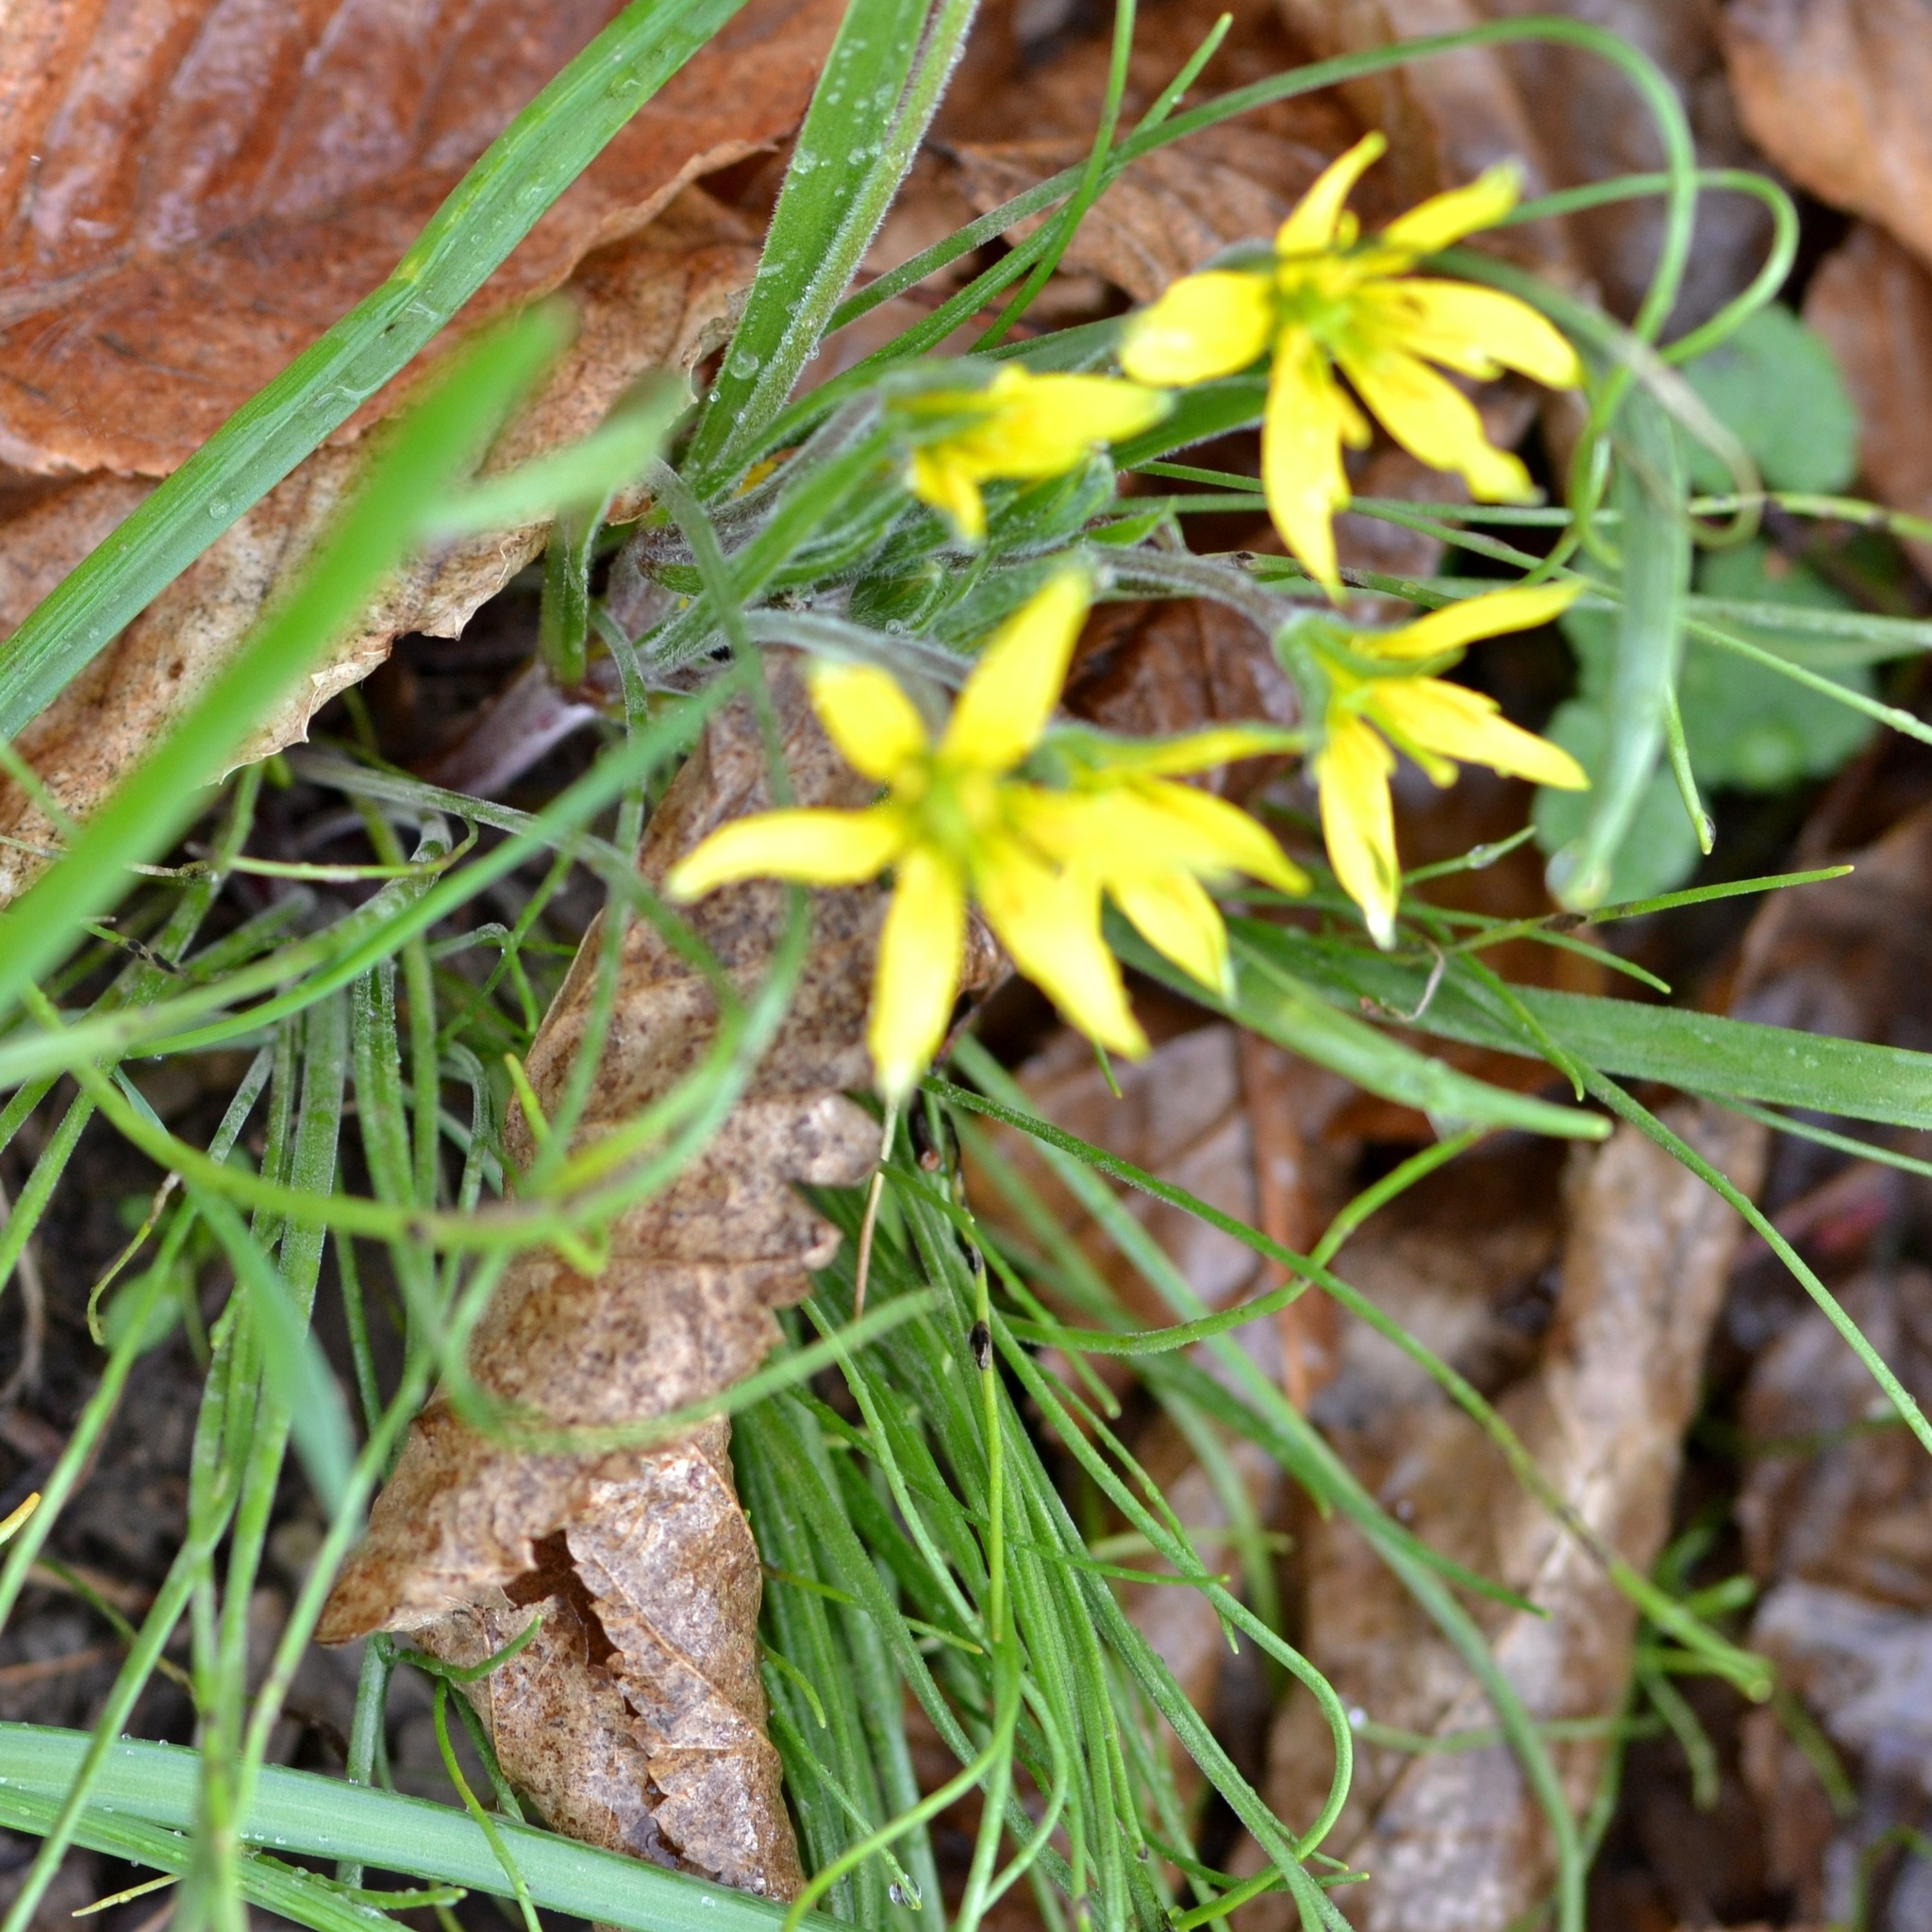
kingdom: Plantae
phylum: Tracheophyta
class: Liliopsida
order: Liliales
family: Liliaceae
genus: Gagea
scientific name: Gagea villosa
